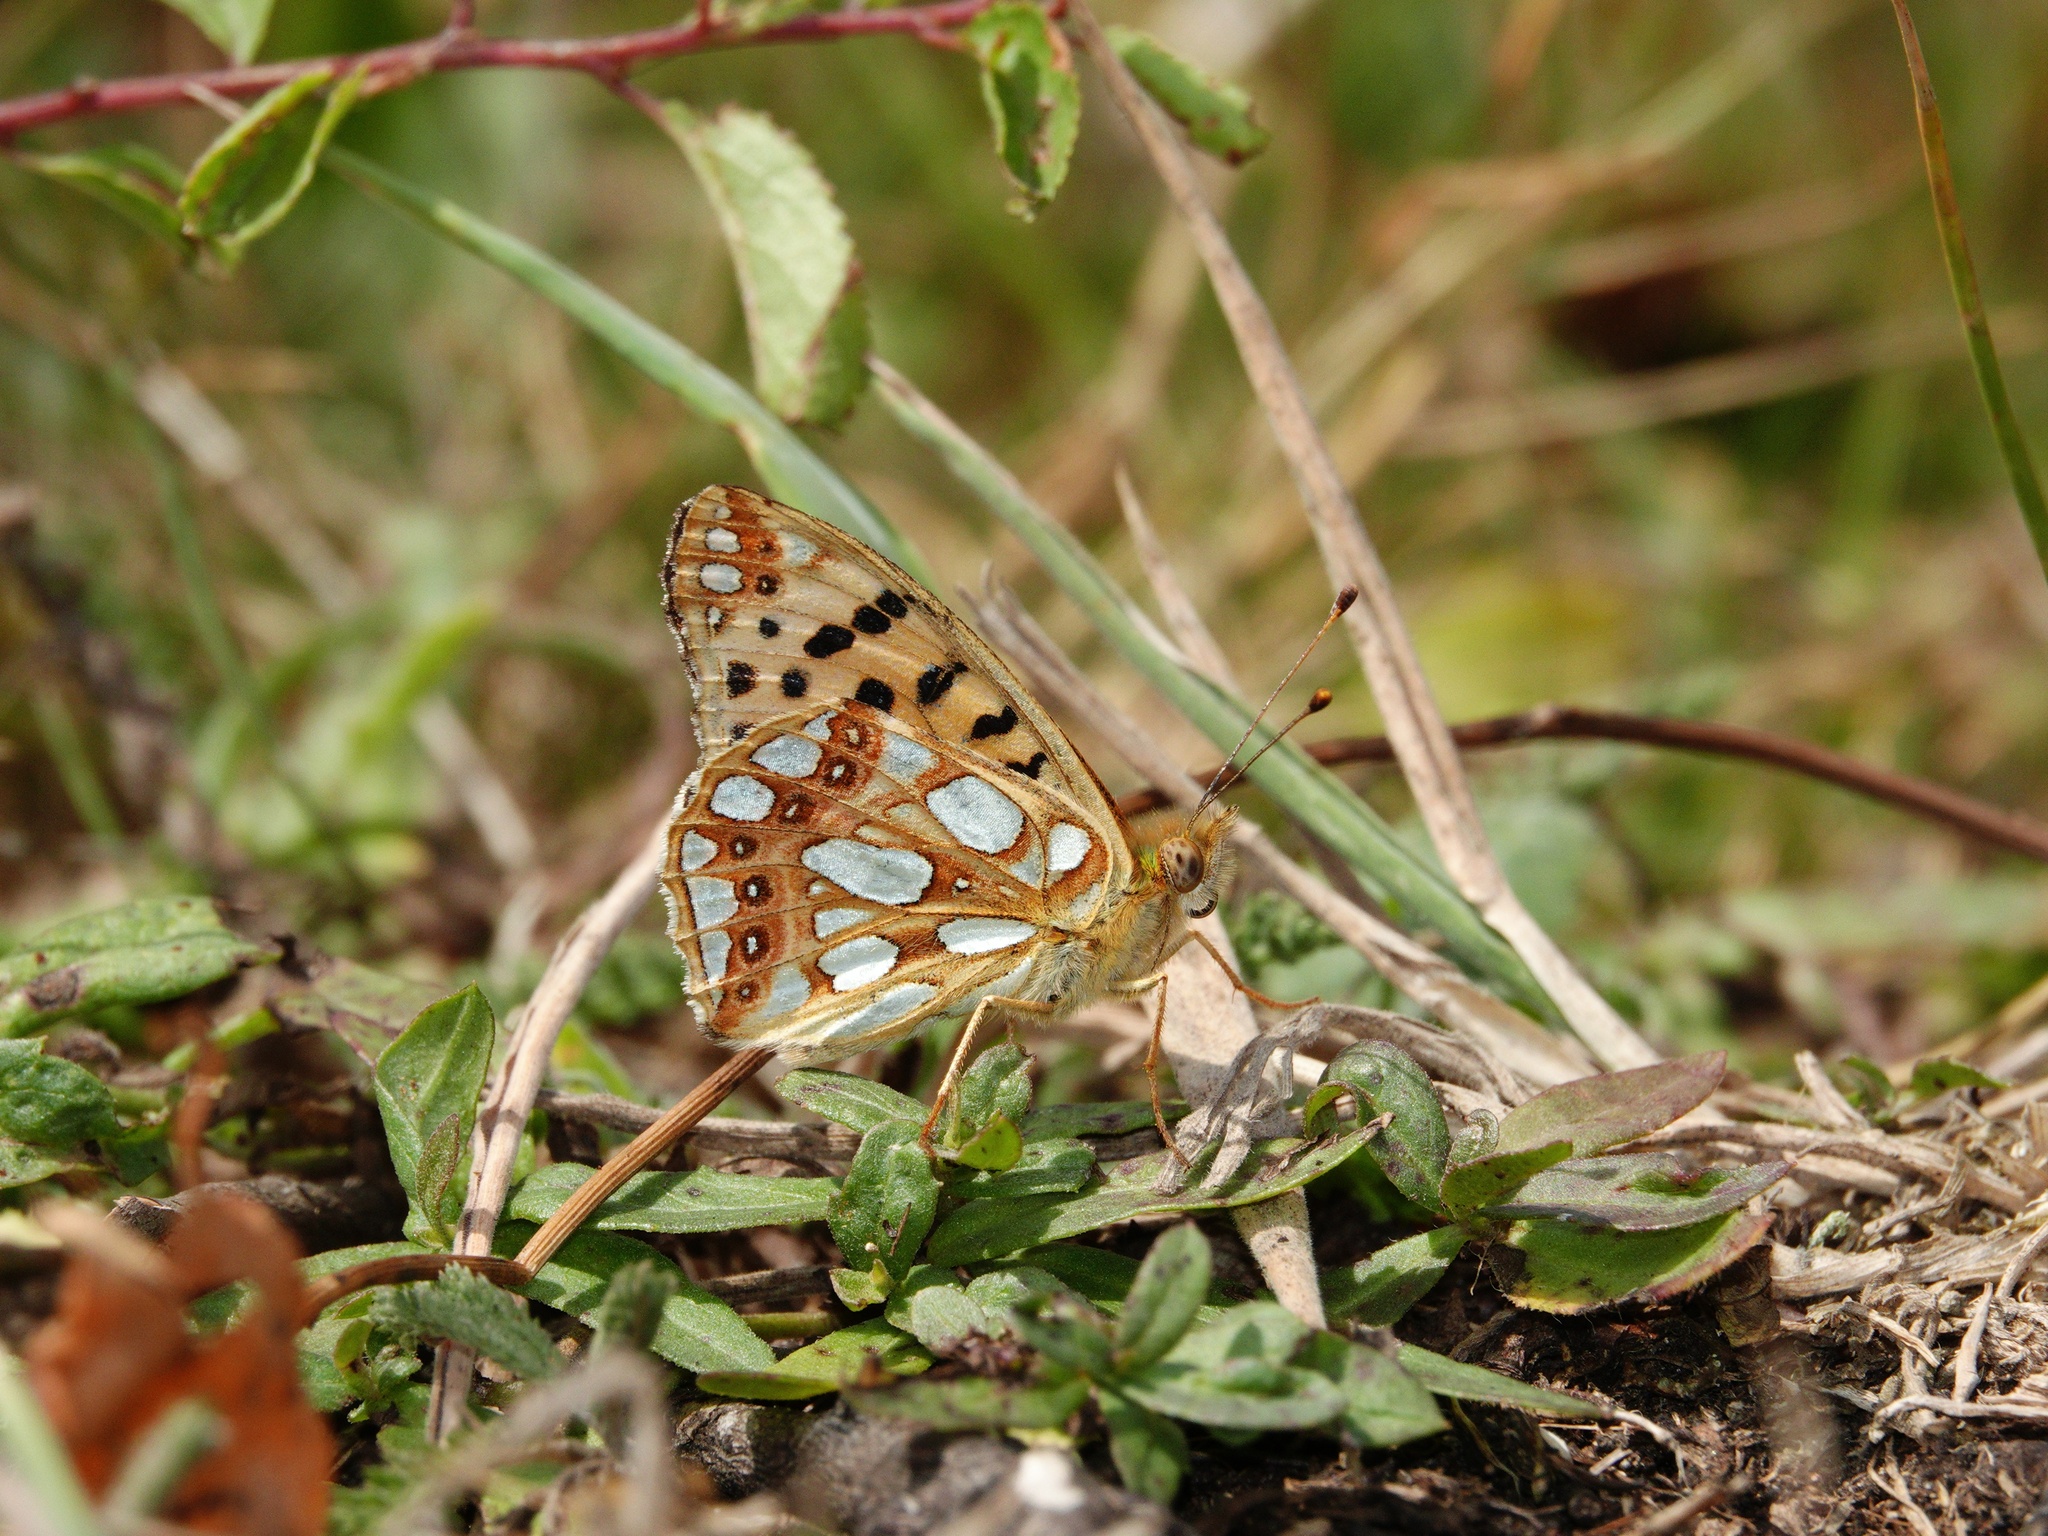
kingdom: Animalia
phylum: Arthropoda
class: Insecta
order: Lepidoptera
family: Nymphalidae
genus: Issoria
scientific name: Issoria lathonia
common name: Queen of spain fritillary
